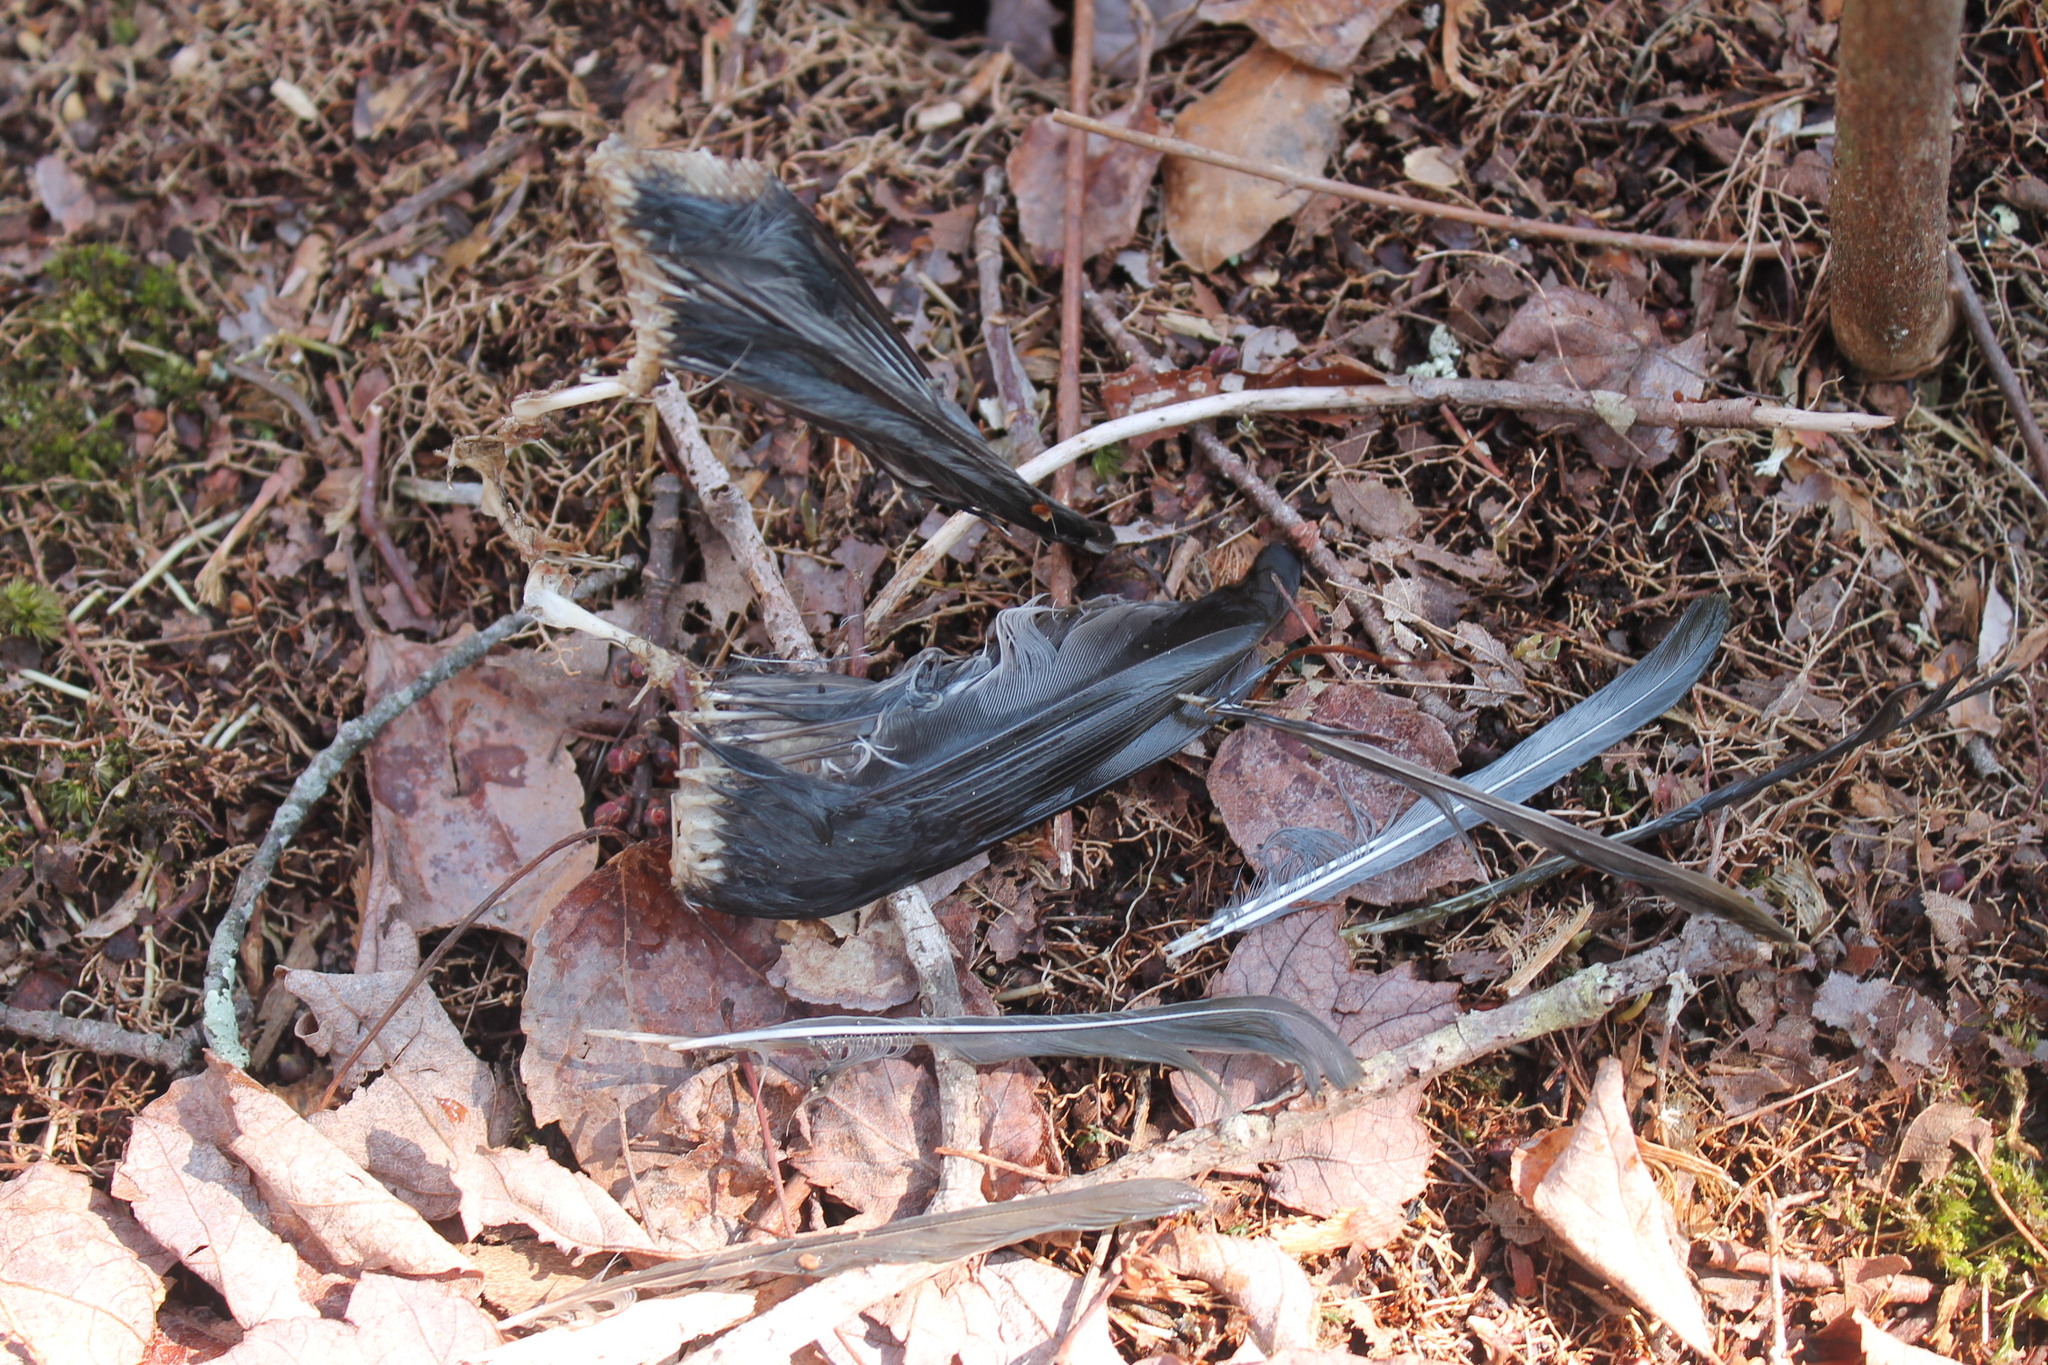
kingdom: Animalia
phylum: Chordata
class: Aves
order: Passeriformes
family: Paridae
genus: Baeolophus
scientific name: Baeolophus bicolor
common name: Tufted titmouse
